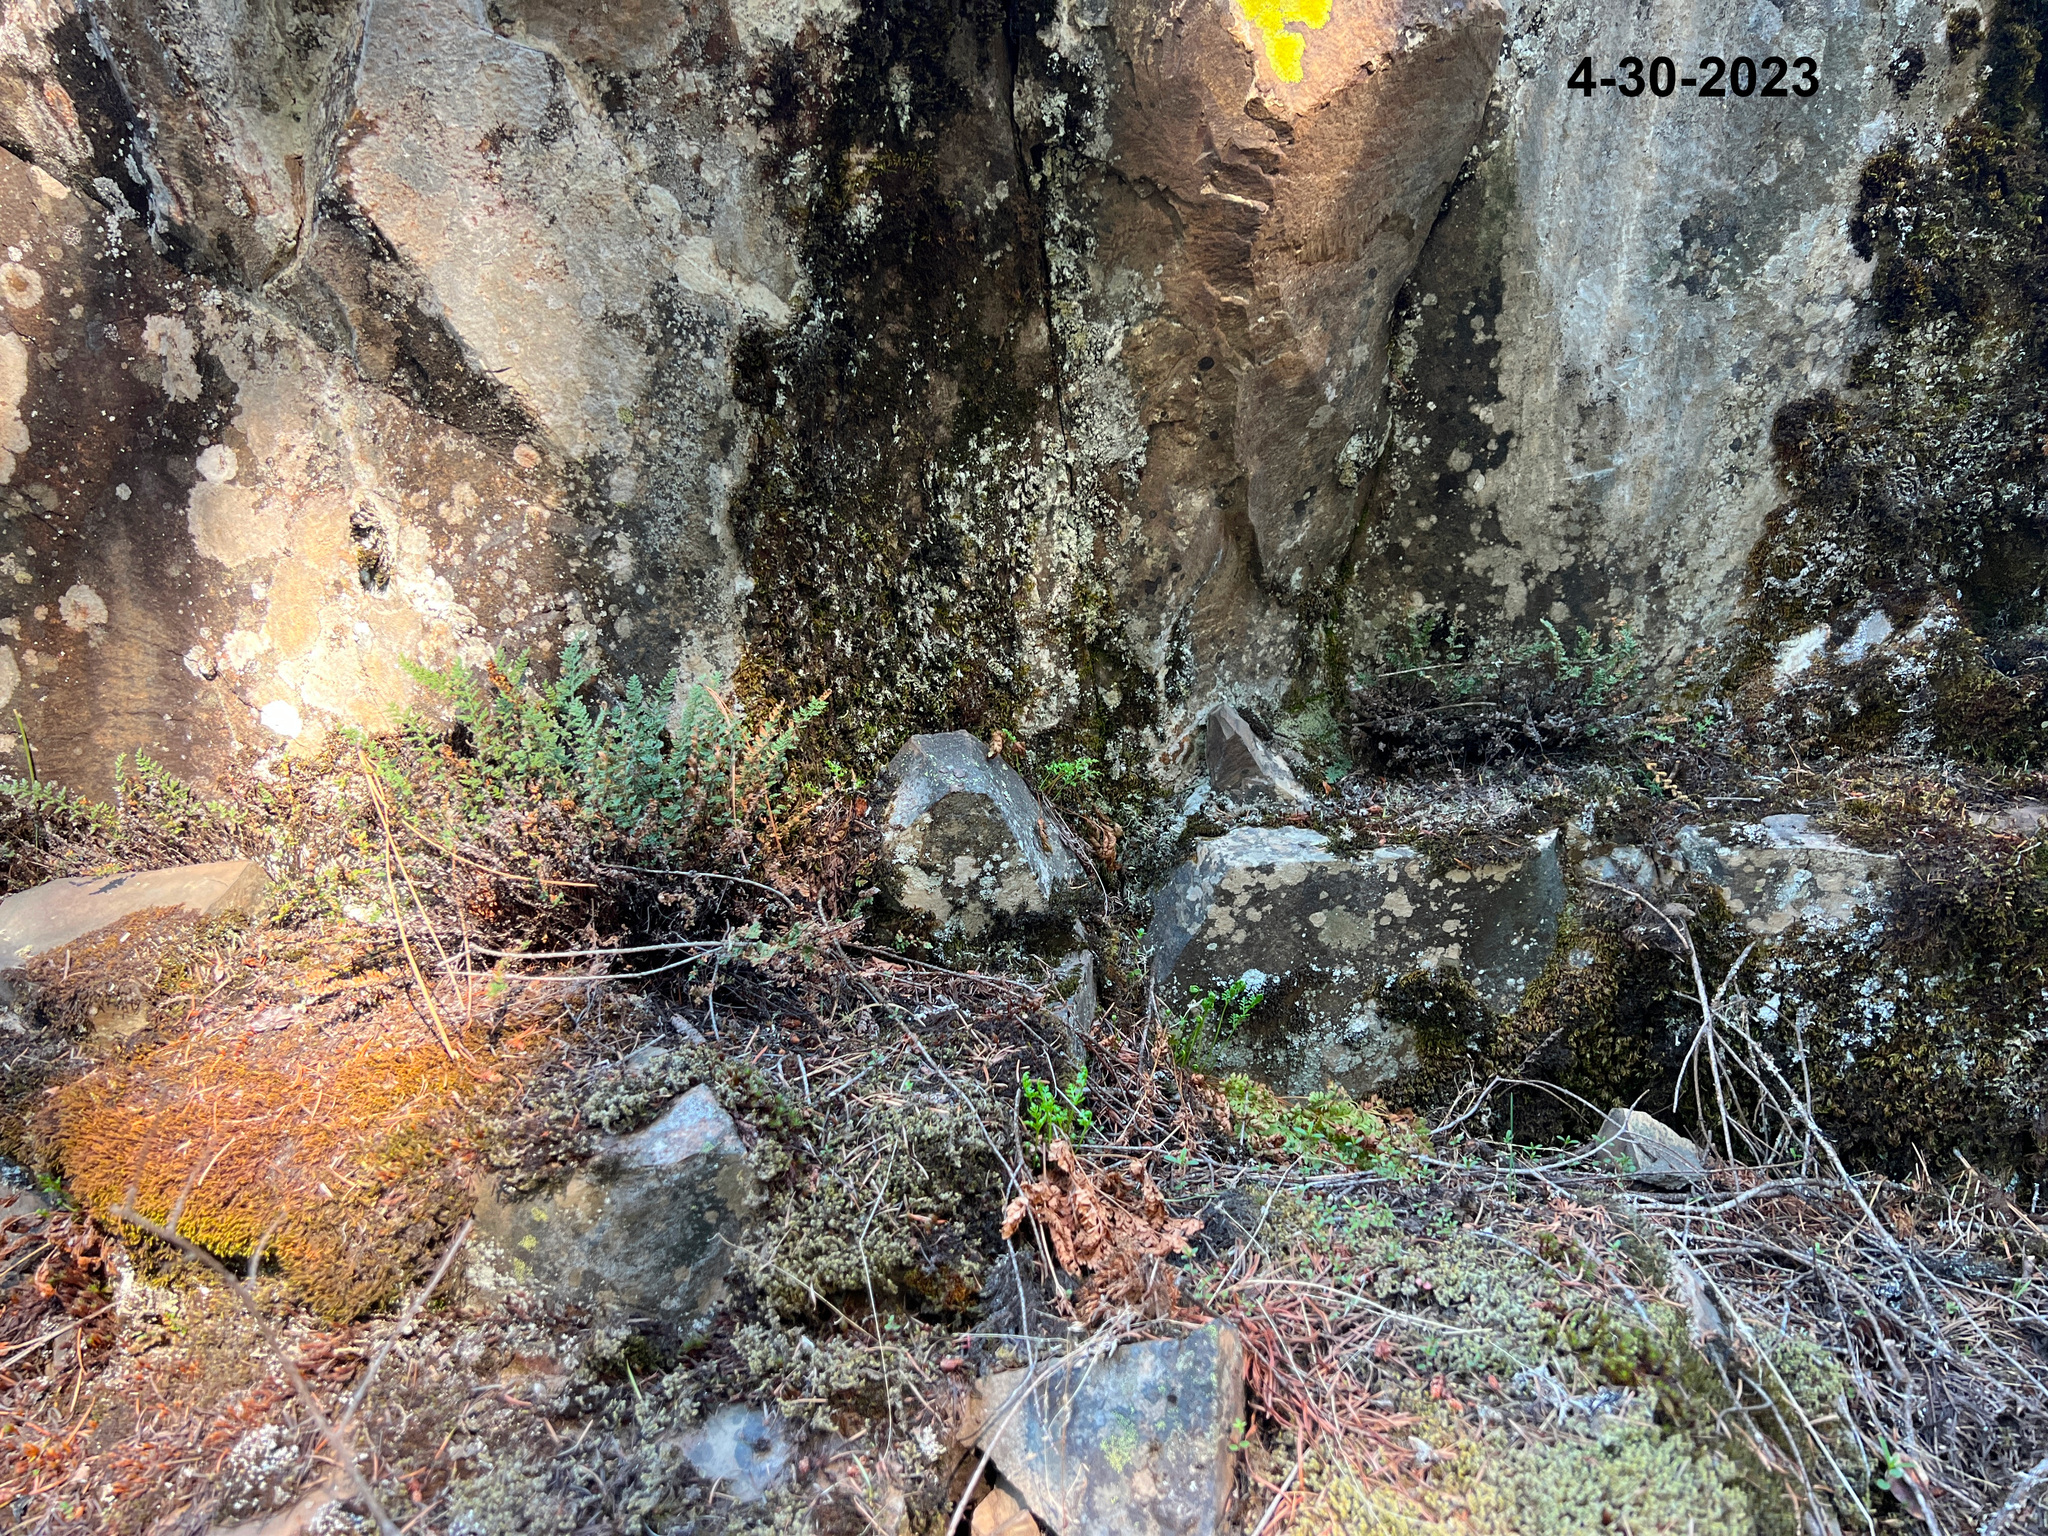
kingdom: Plantae
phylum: Tracheophyta
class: Polypodiopsida
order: Polypodiales
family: Pteridaceae
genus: Myriopteris
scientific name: Myriopteris gracillima
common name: Lace fern
